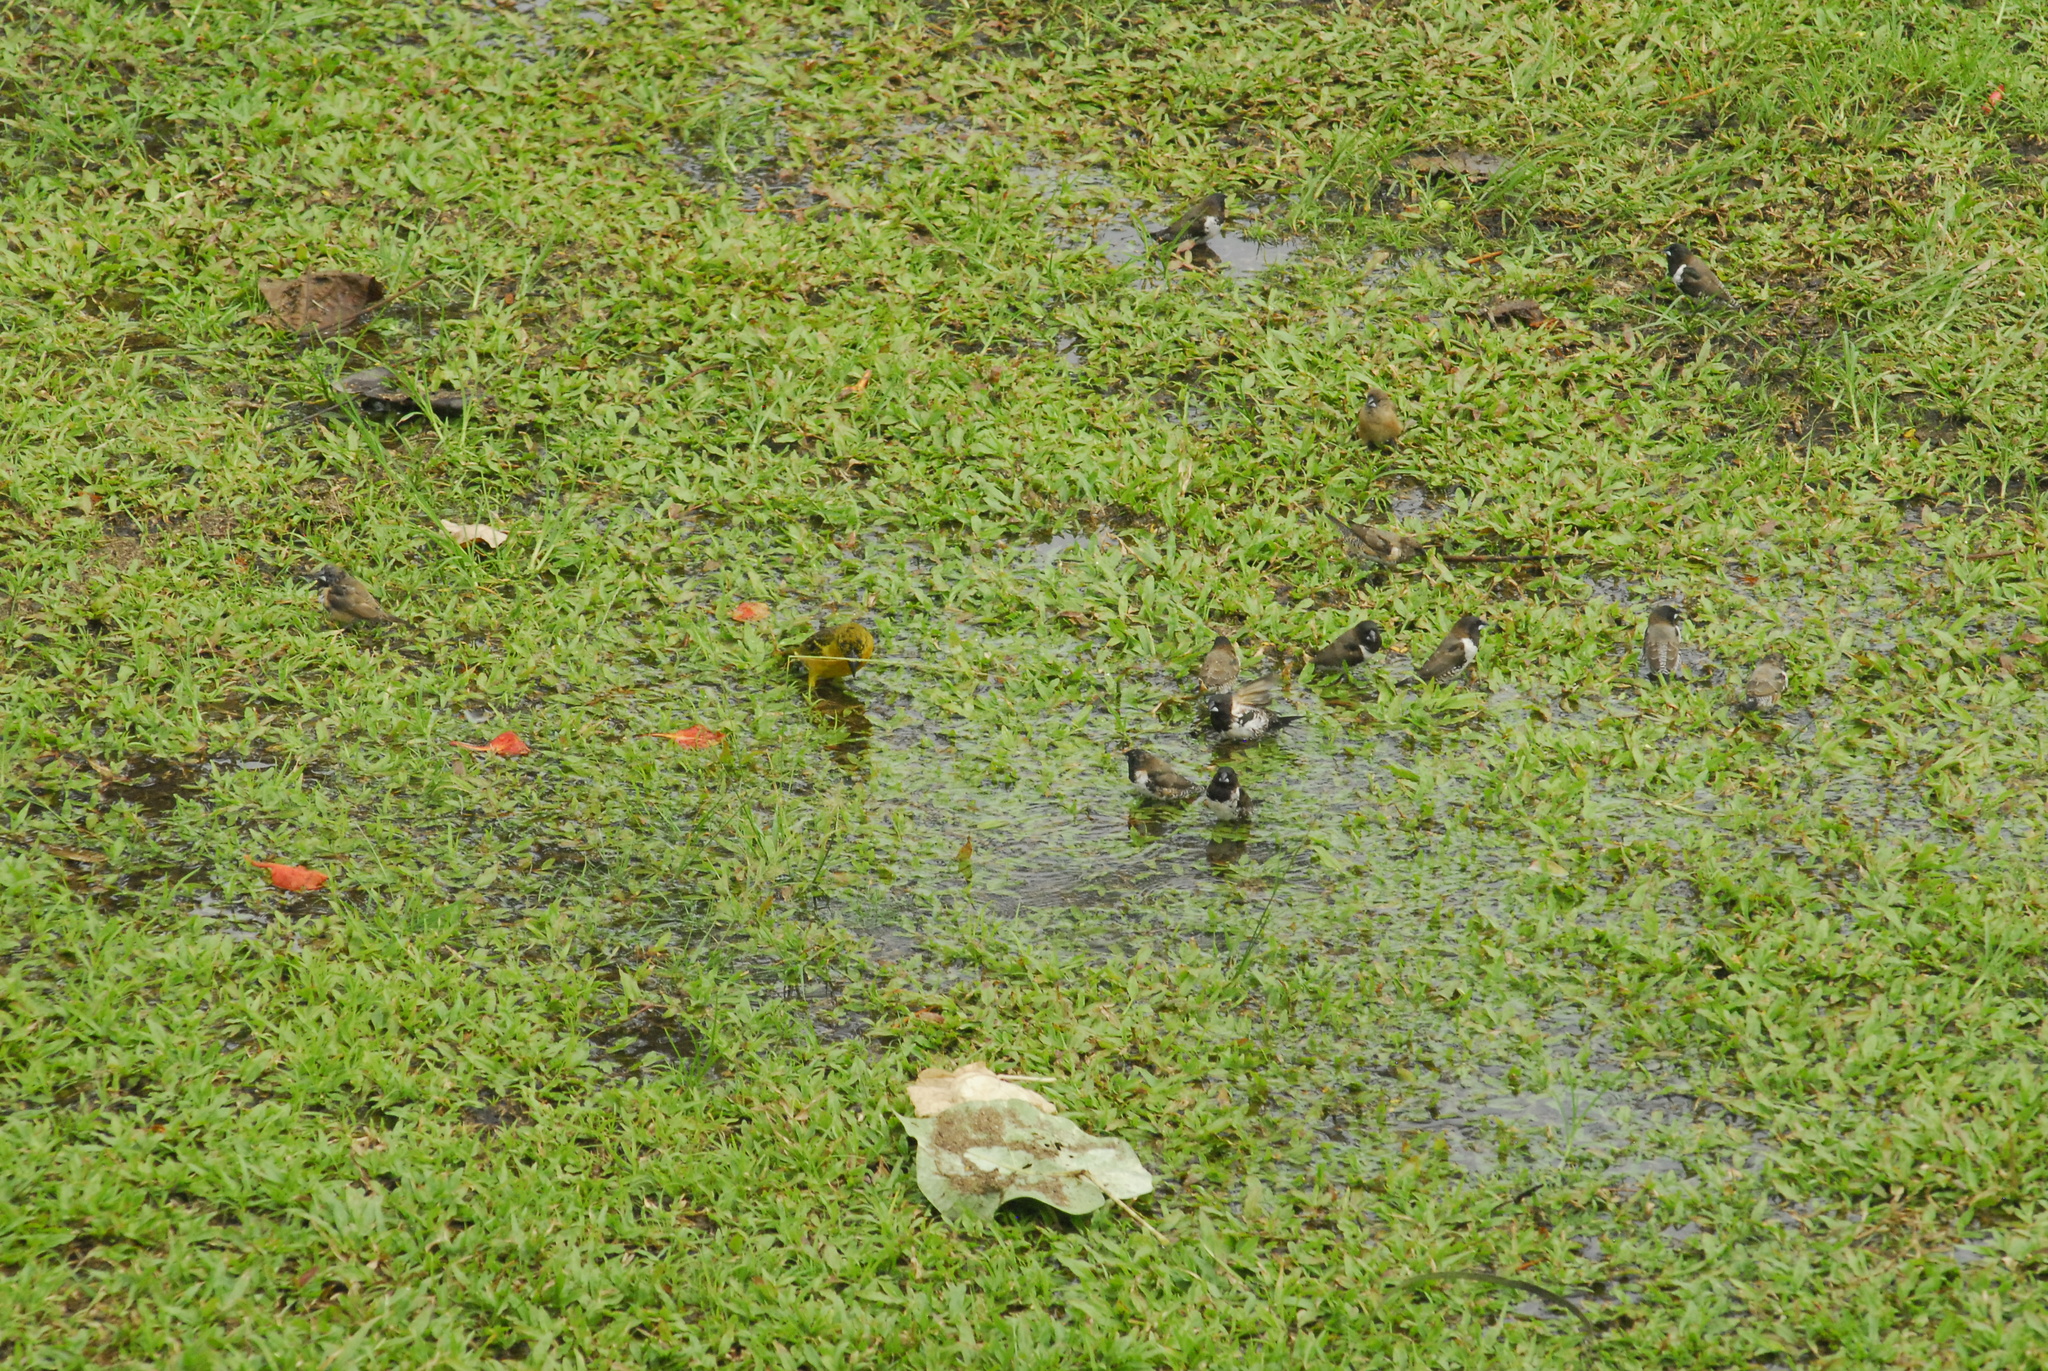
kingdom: Animalia
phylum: Chordata
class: Aves
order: Passeriformes
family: Estrildidae
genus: Lonchura
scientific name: Lonchura cucullata
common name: Bronze mannikin
